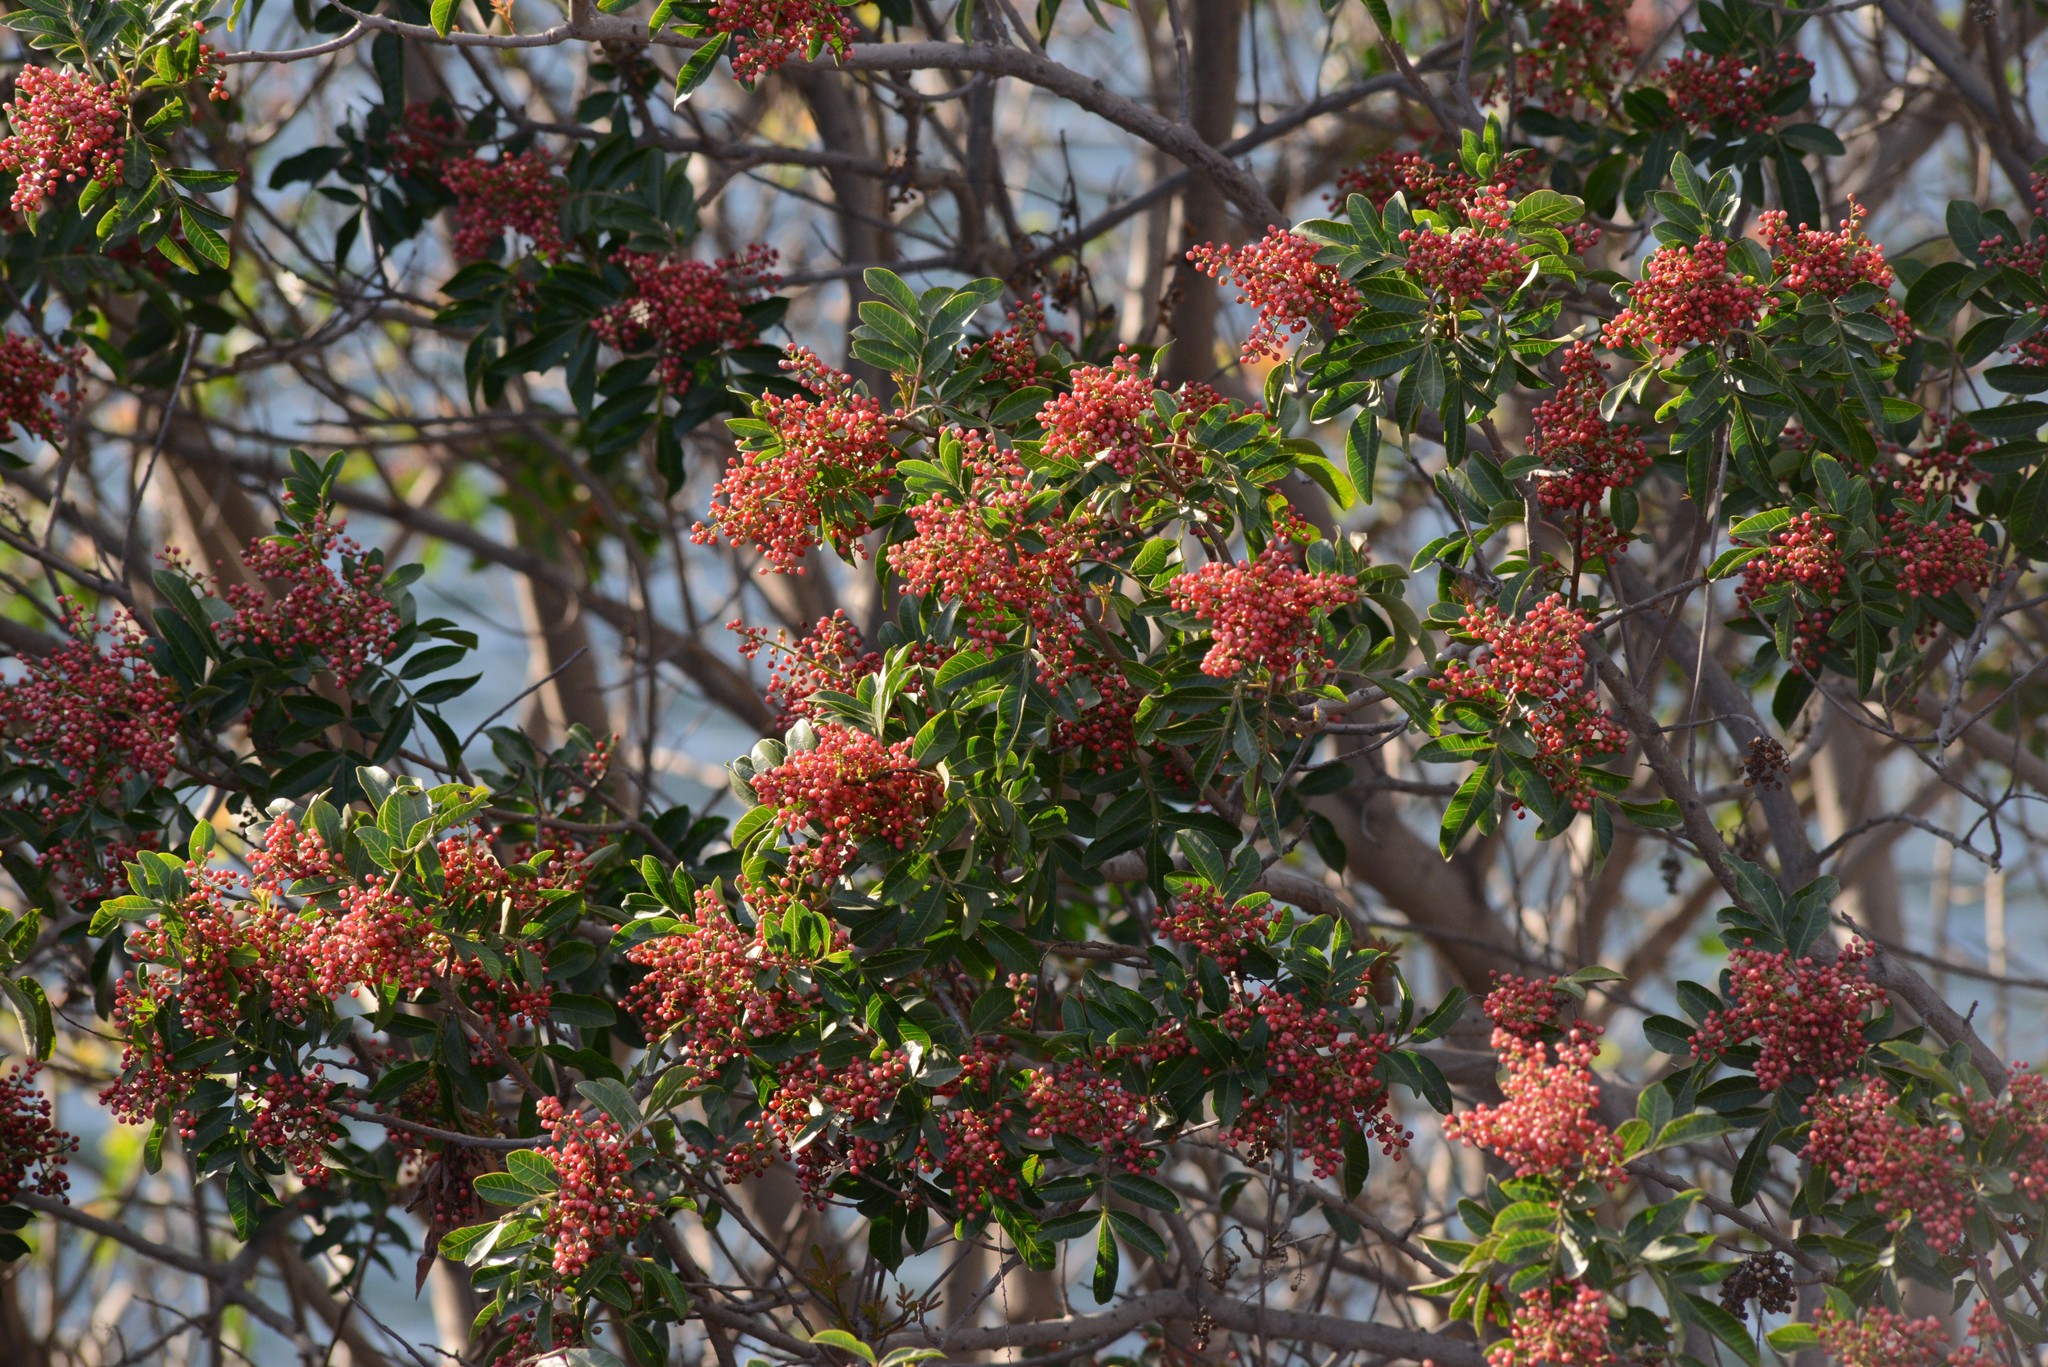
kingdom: Plantae
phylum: Tracheophyta
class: Magnoliopsida
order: Sapindales
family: Anacardiaceae
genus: Schinus
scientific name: Schinus terebinthifolia
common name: Brazilian peppertree
